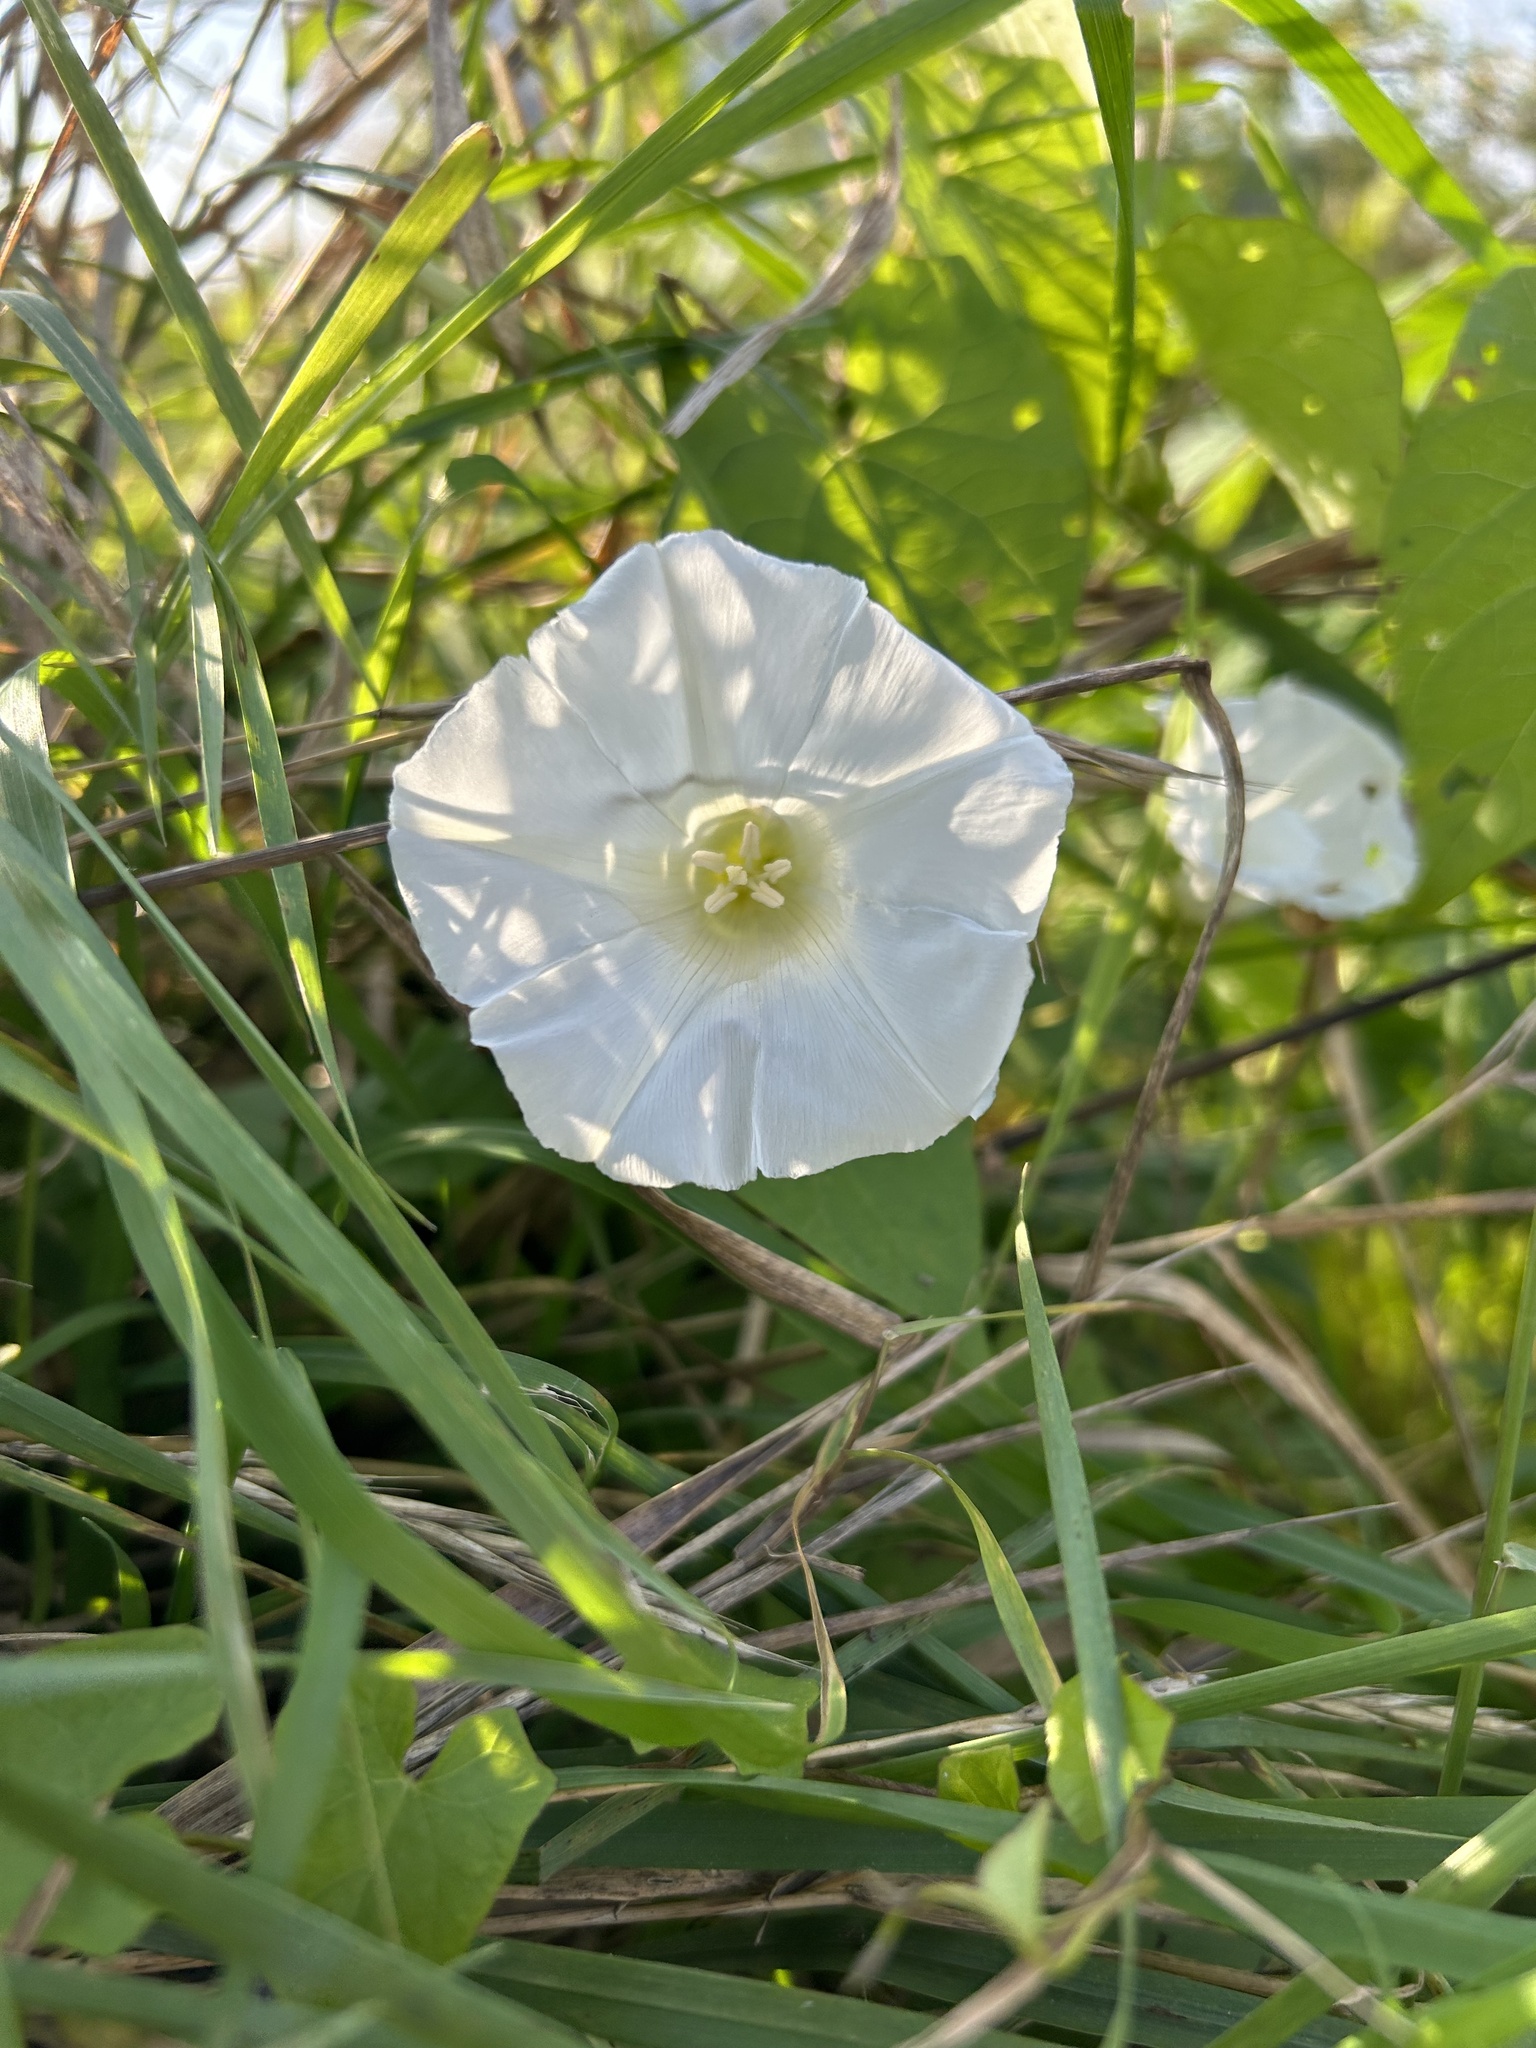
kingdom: Plantae
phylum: Tracheophyta
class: Magnoliopsida
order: Solanales
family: Convolvulaceae
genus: Calystegia
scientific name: Calystegia sepium
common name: Hedge bindweed
